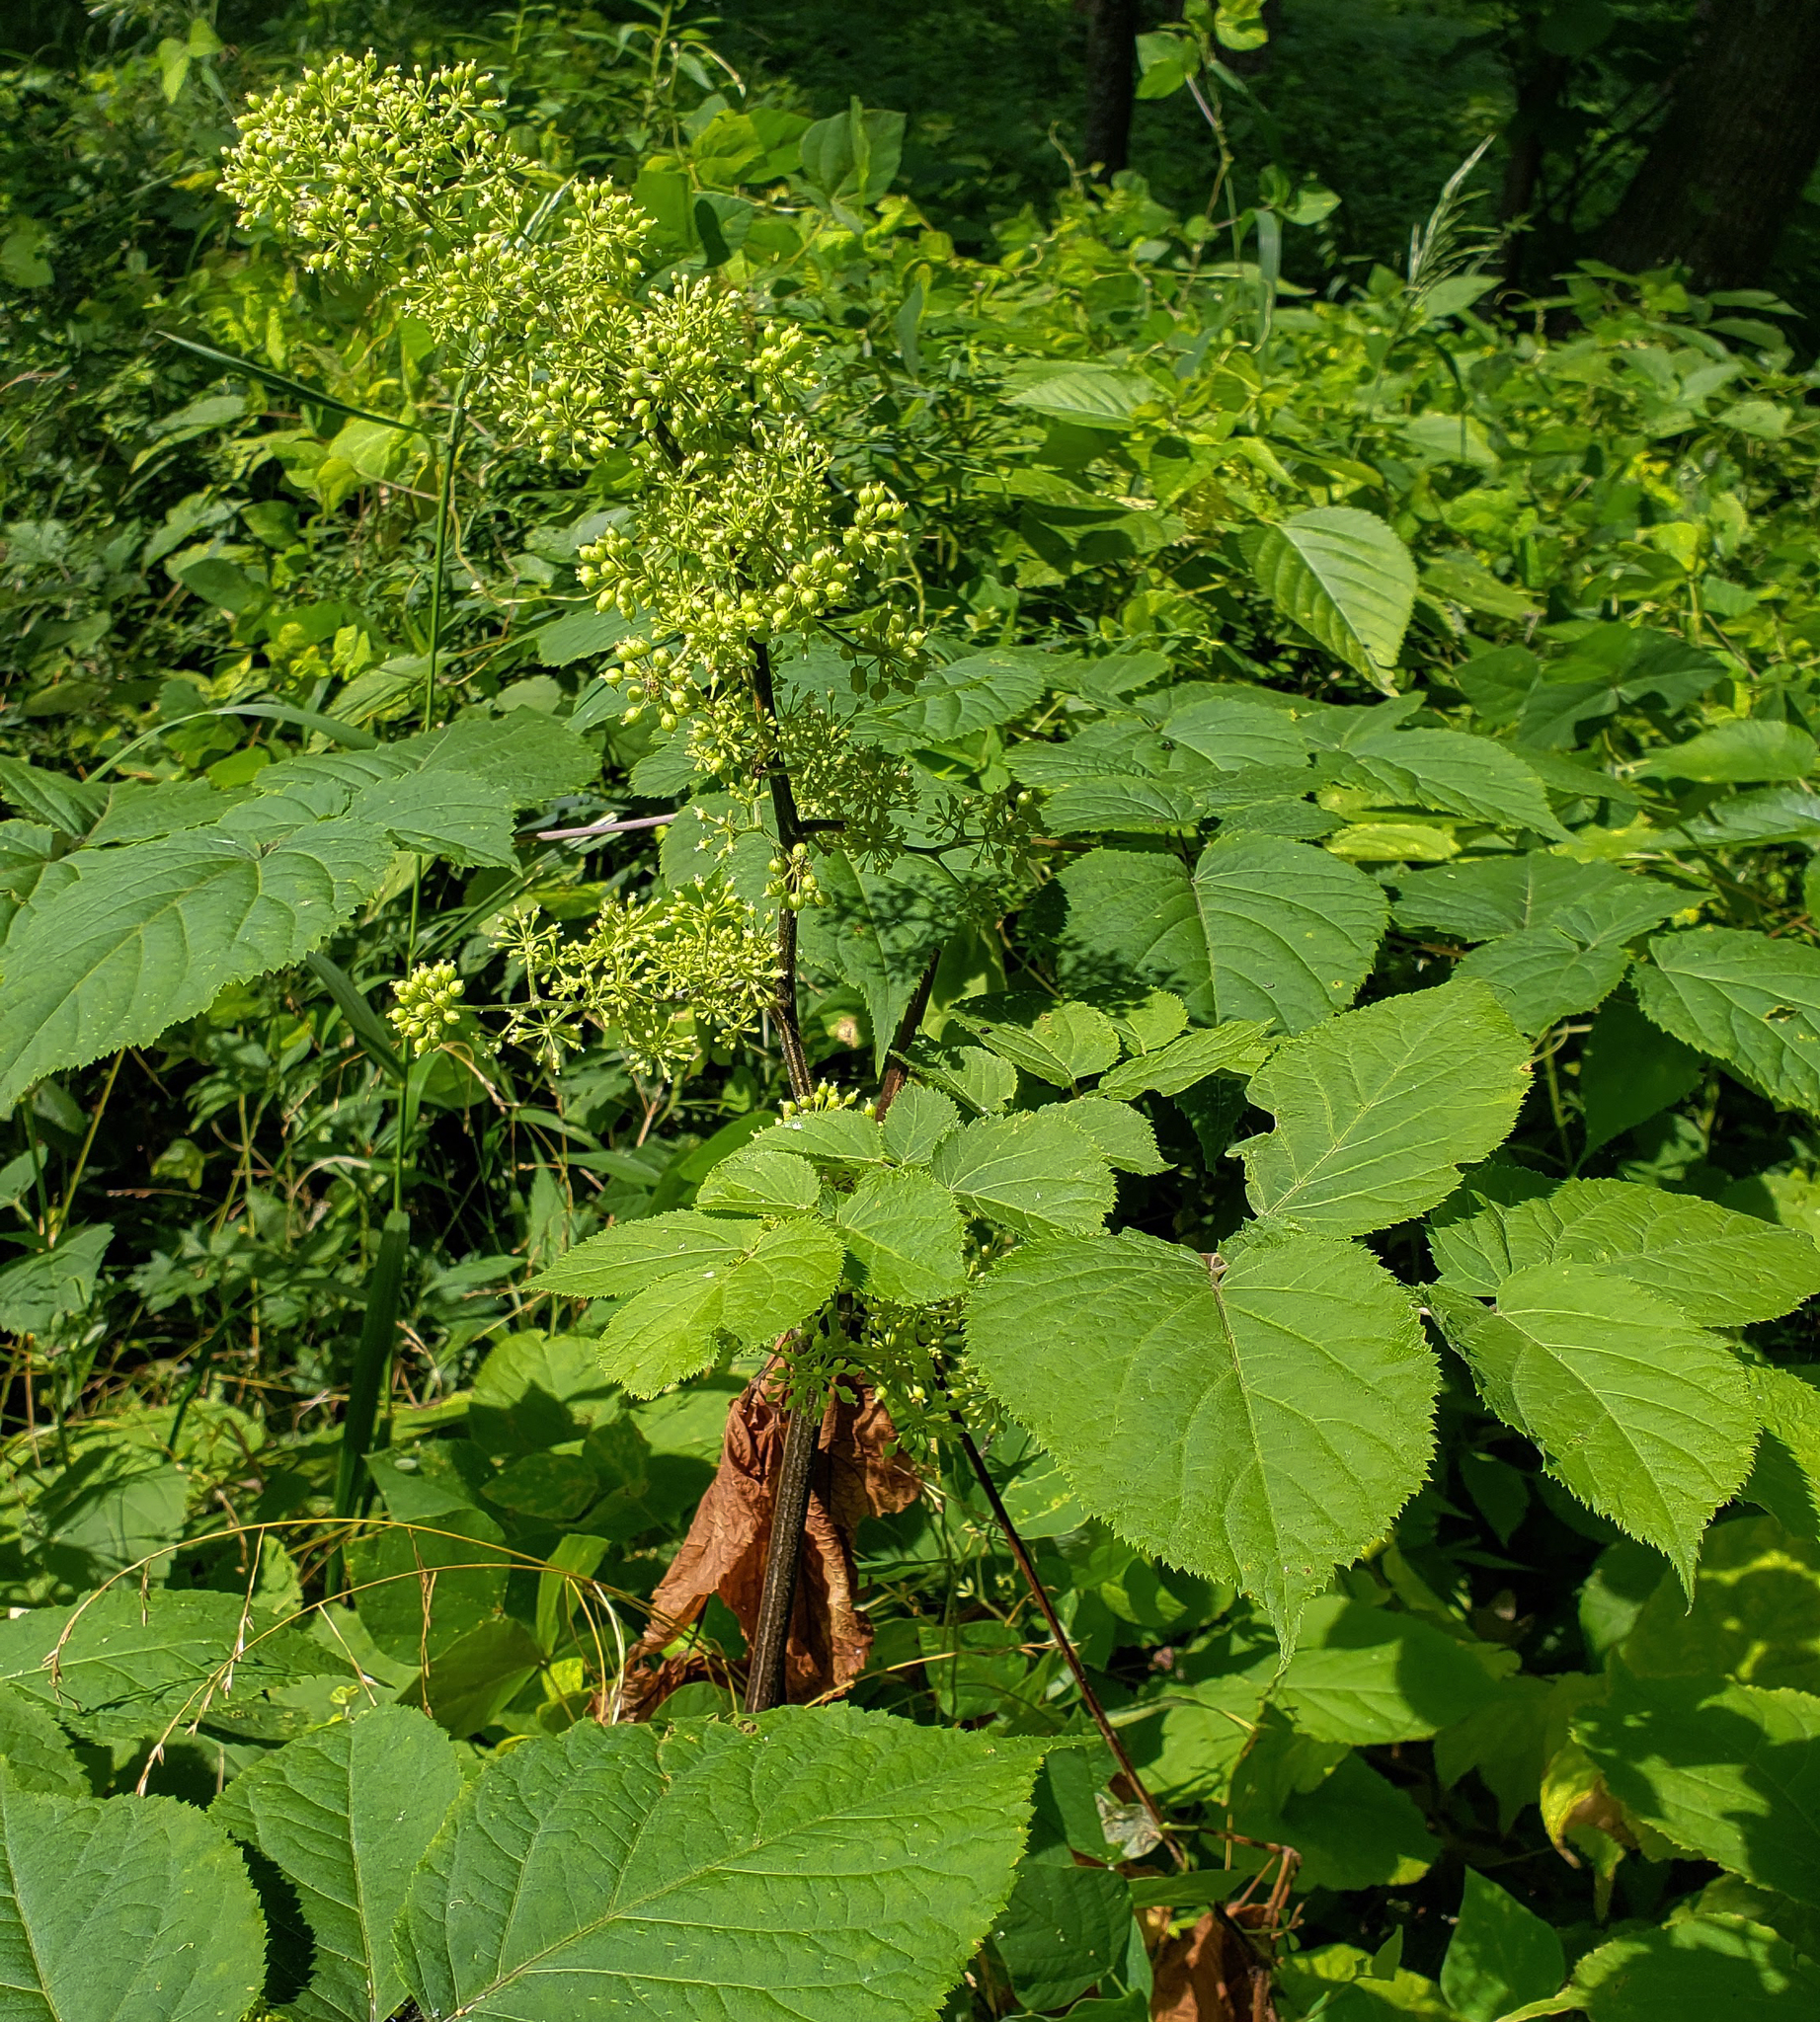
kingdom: Plantae
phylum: Tracheophyta
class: Magnoliopsida
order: Apiales
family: Araliaceae
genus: Aralia
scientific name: Aralia racemosa
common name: American-spikenard
